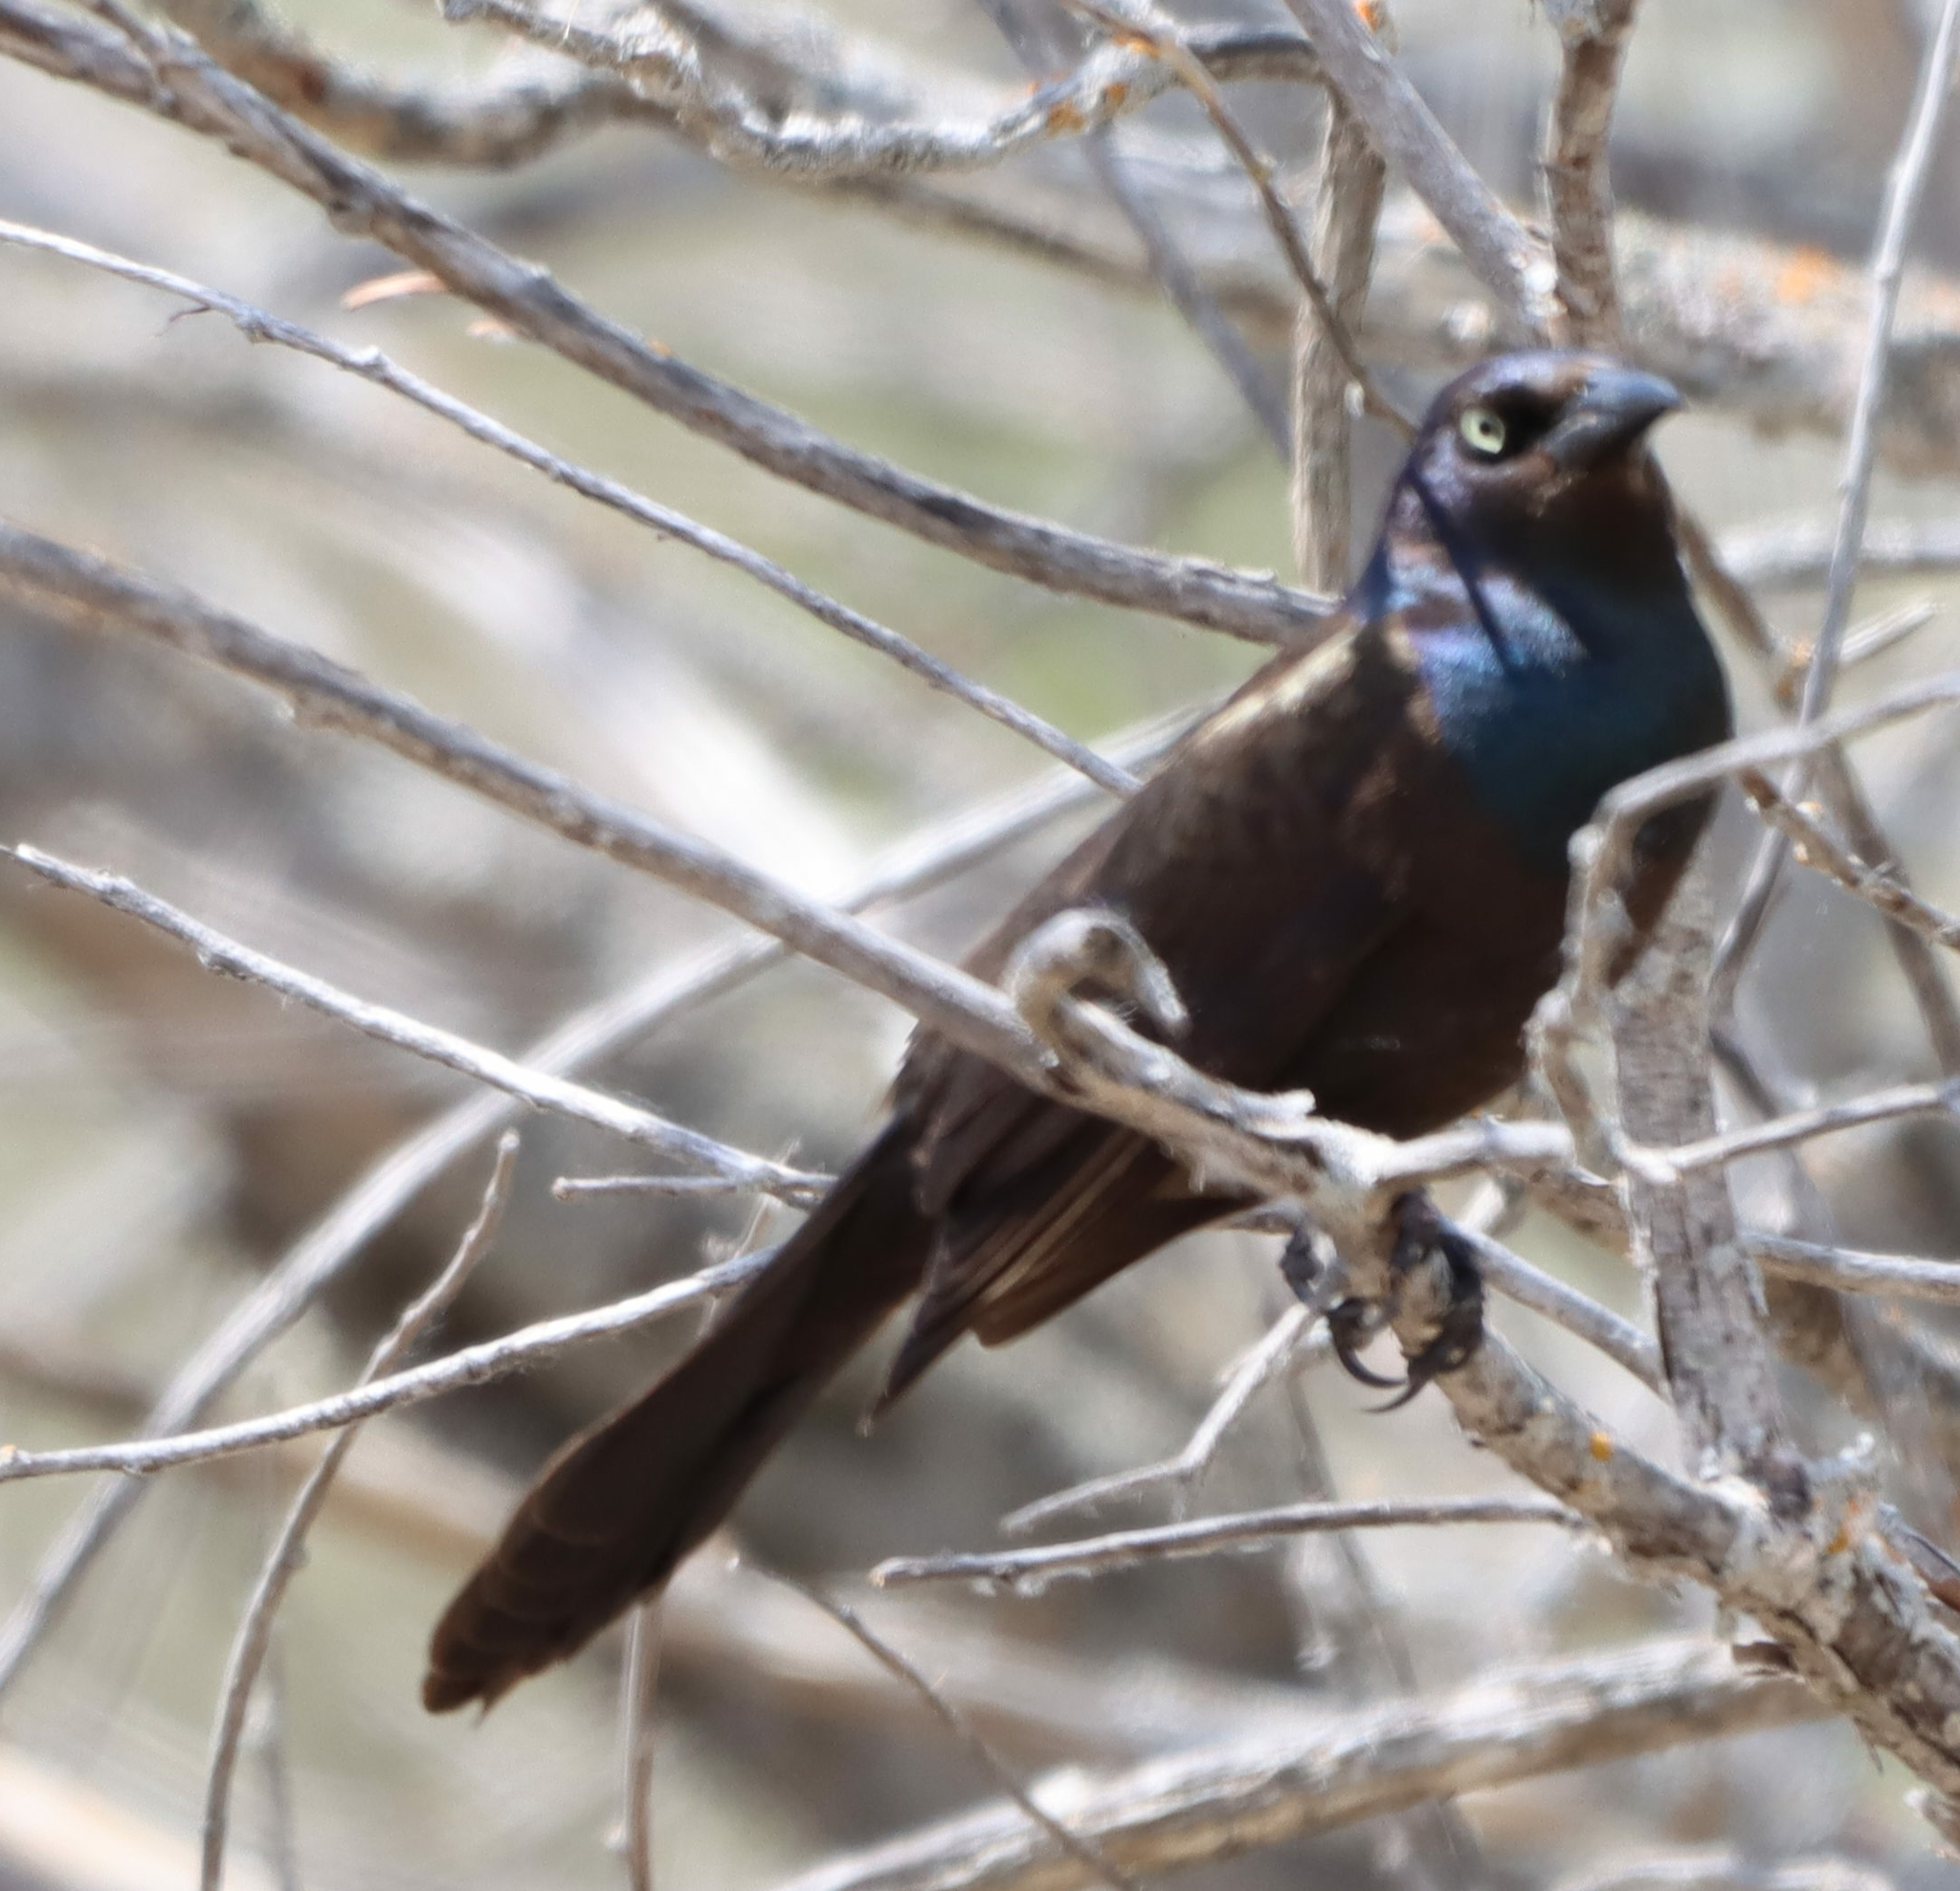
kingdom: Animalia
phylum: Chordata
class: Aves
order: Passeriformes
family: Icteridae
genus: Quiscalus
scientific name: Quiscalus quiscula
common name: Common grackle
